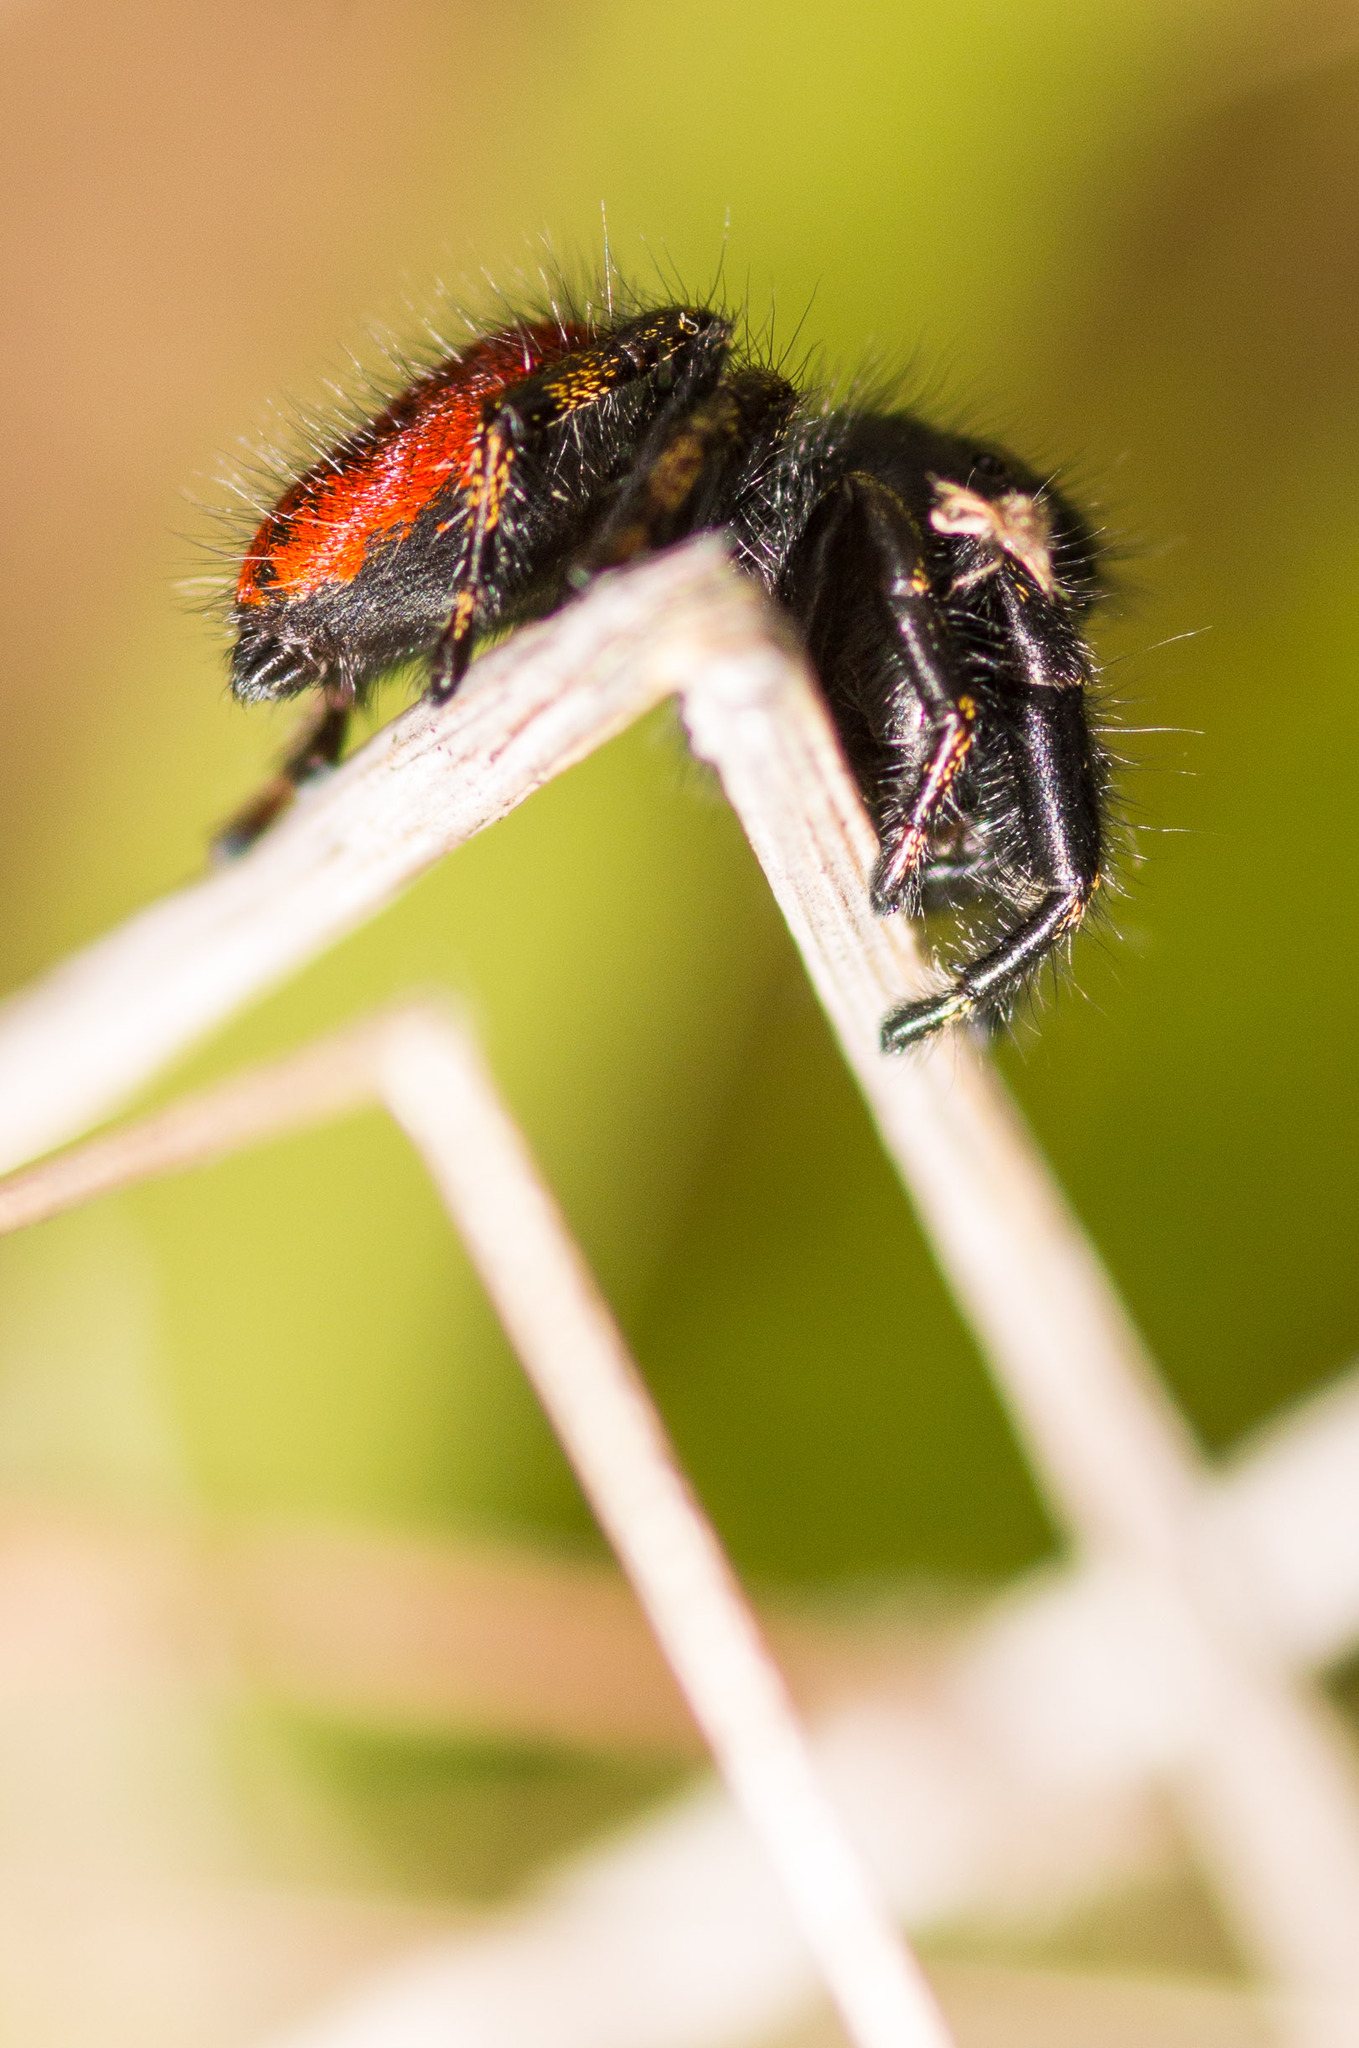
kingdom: Animalia
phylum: Arthropoda
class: Arachnida
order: Araneae
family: Salticidae
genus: Phidippus
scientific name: Phidippus johnsoni
